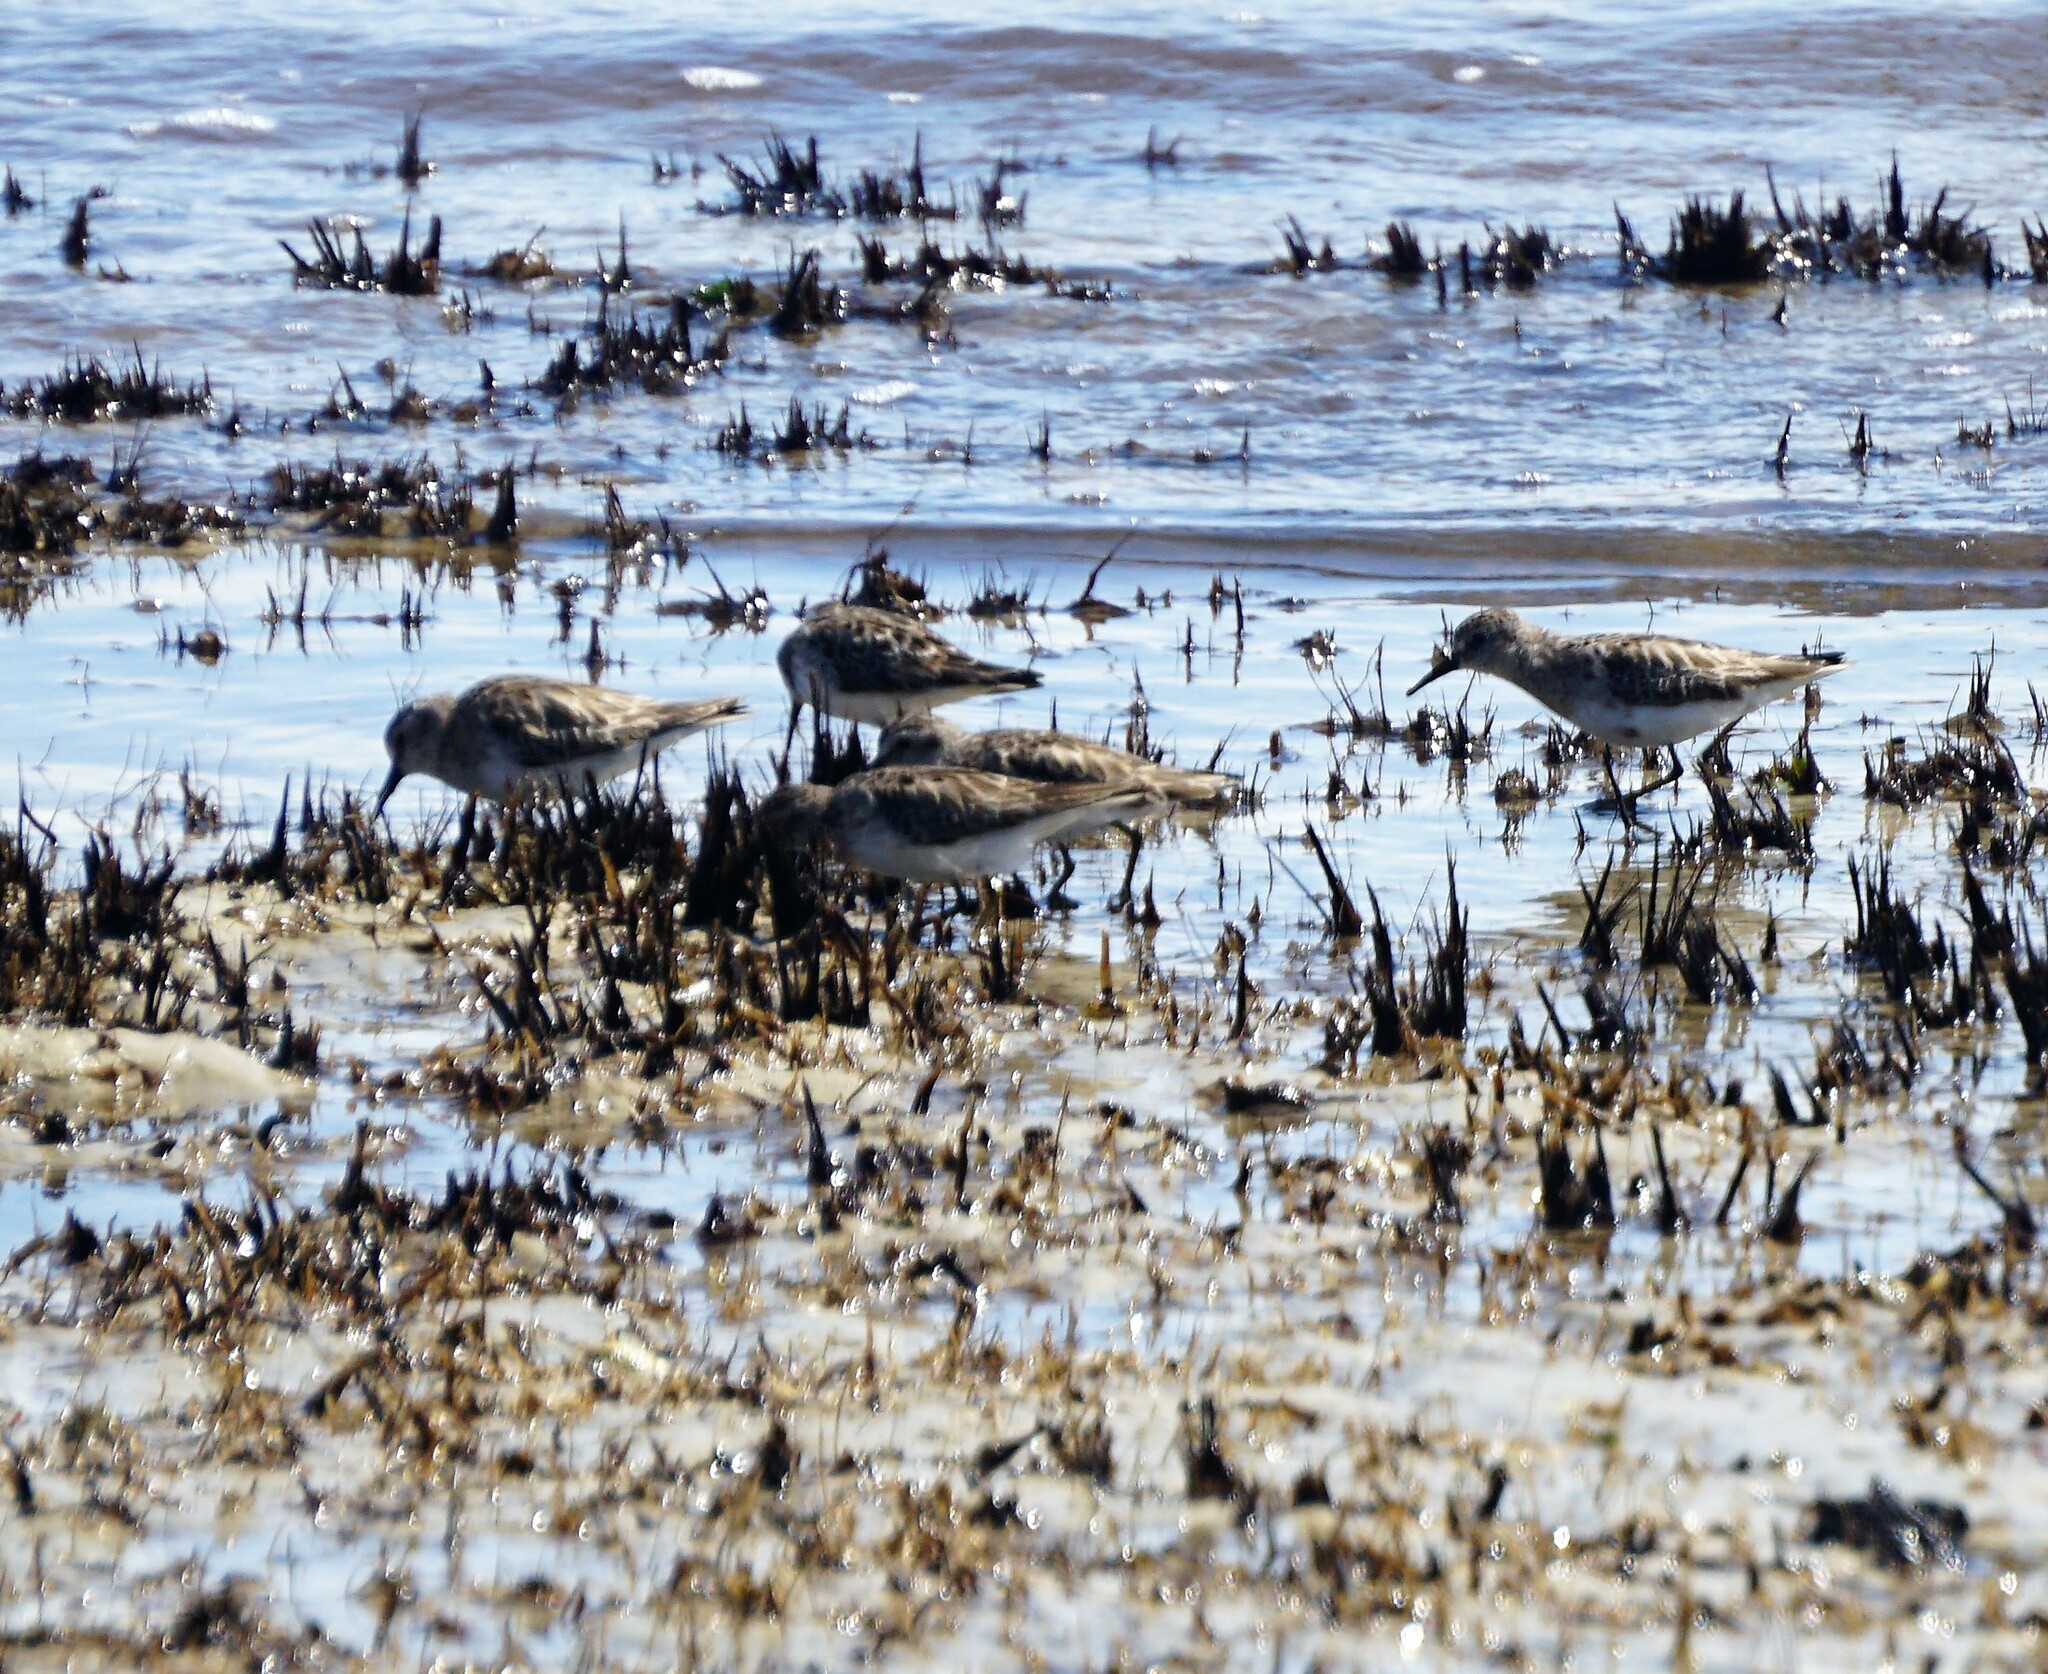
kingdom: Animalia
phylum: Chordata
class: Aves
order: Charadriiformes
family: Scolopacidae
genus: Calidris
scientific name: Calidris minutilla
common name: Least sandpiper
